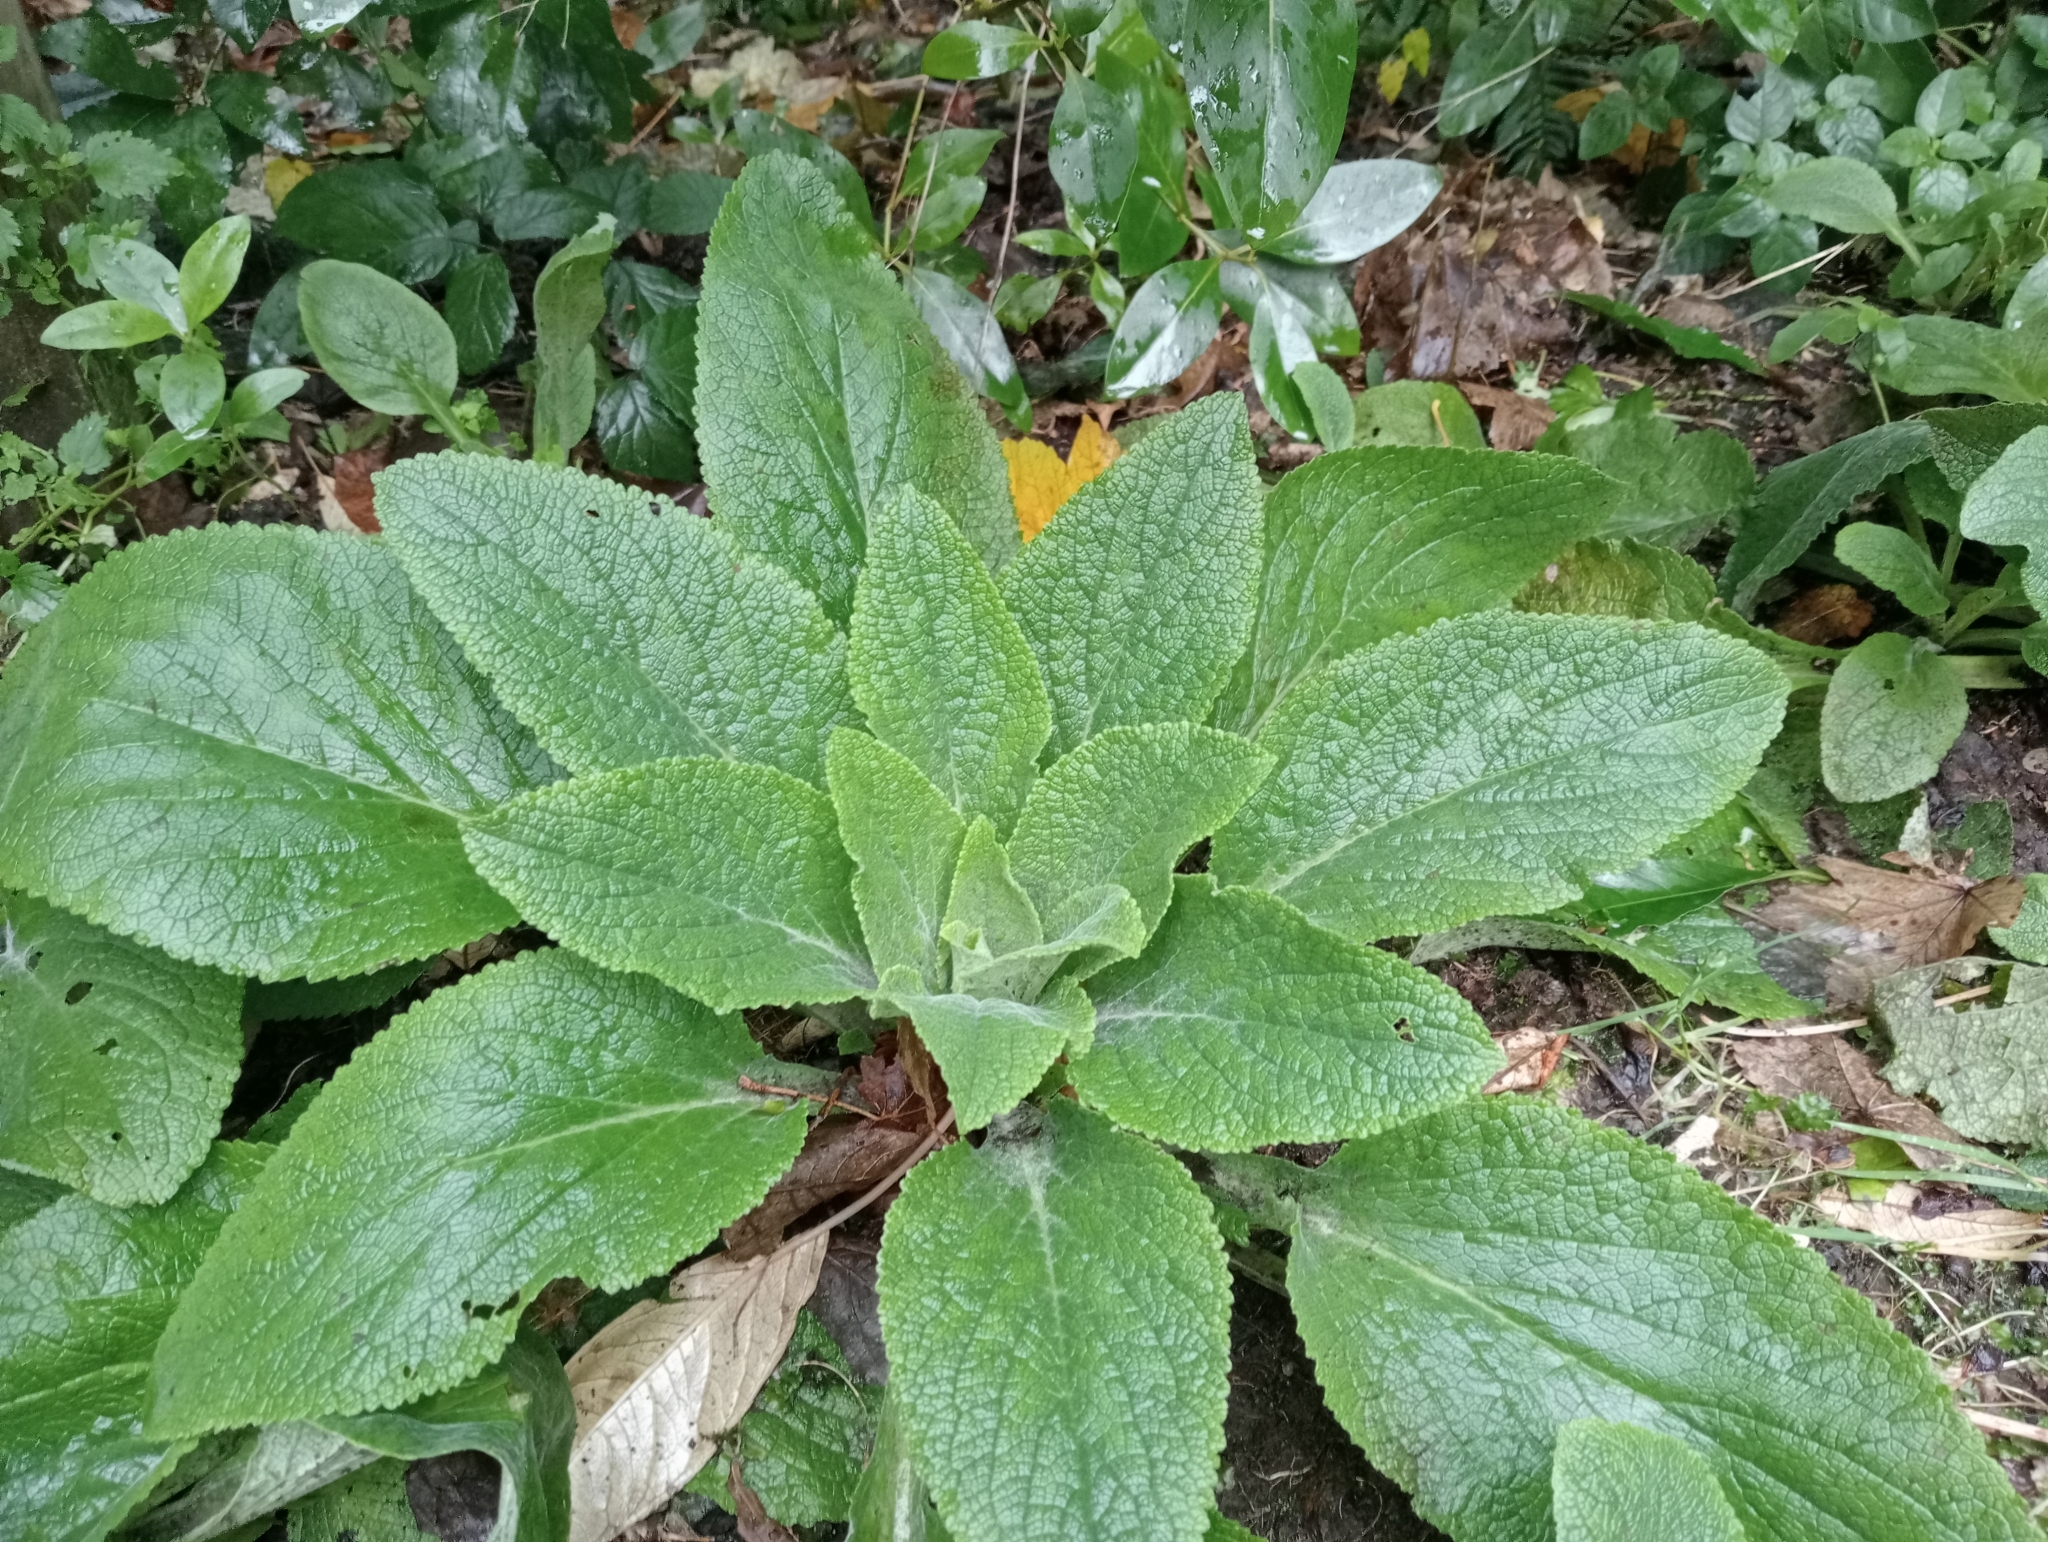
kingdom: Plantae
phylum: Tracheophyta
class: Magnoliopsida
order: Lamiales
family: Plantaginaceae
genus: Digitalis
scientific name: Digitalis purpurea
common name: Foxglove
